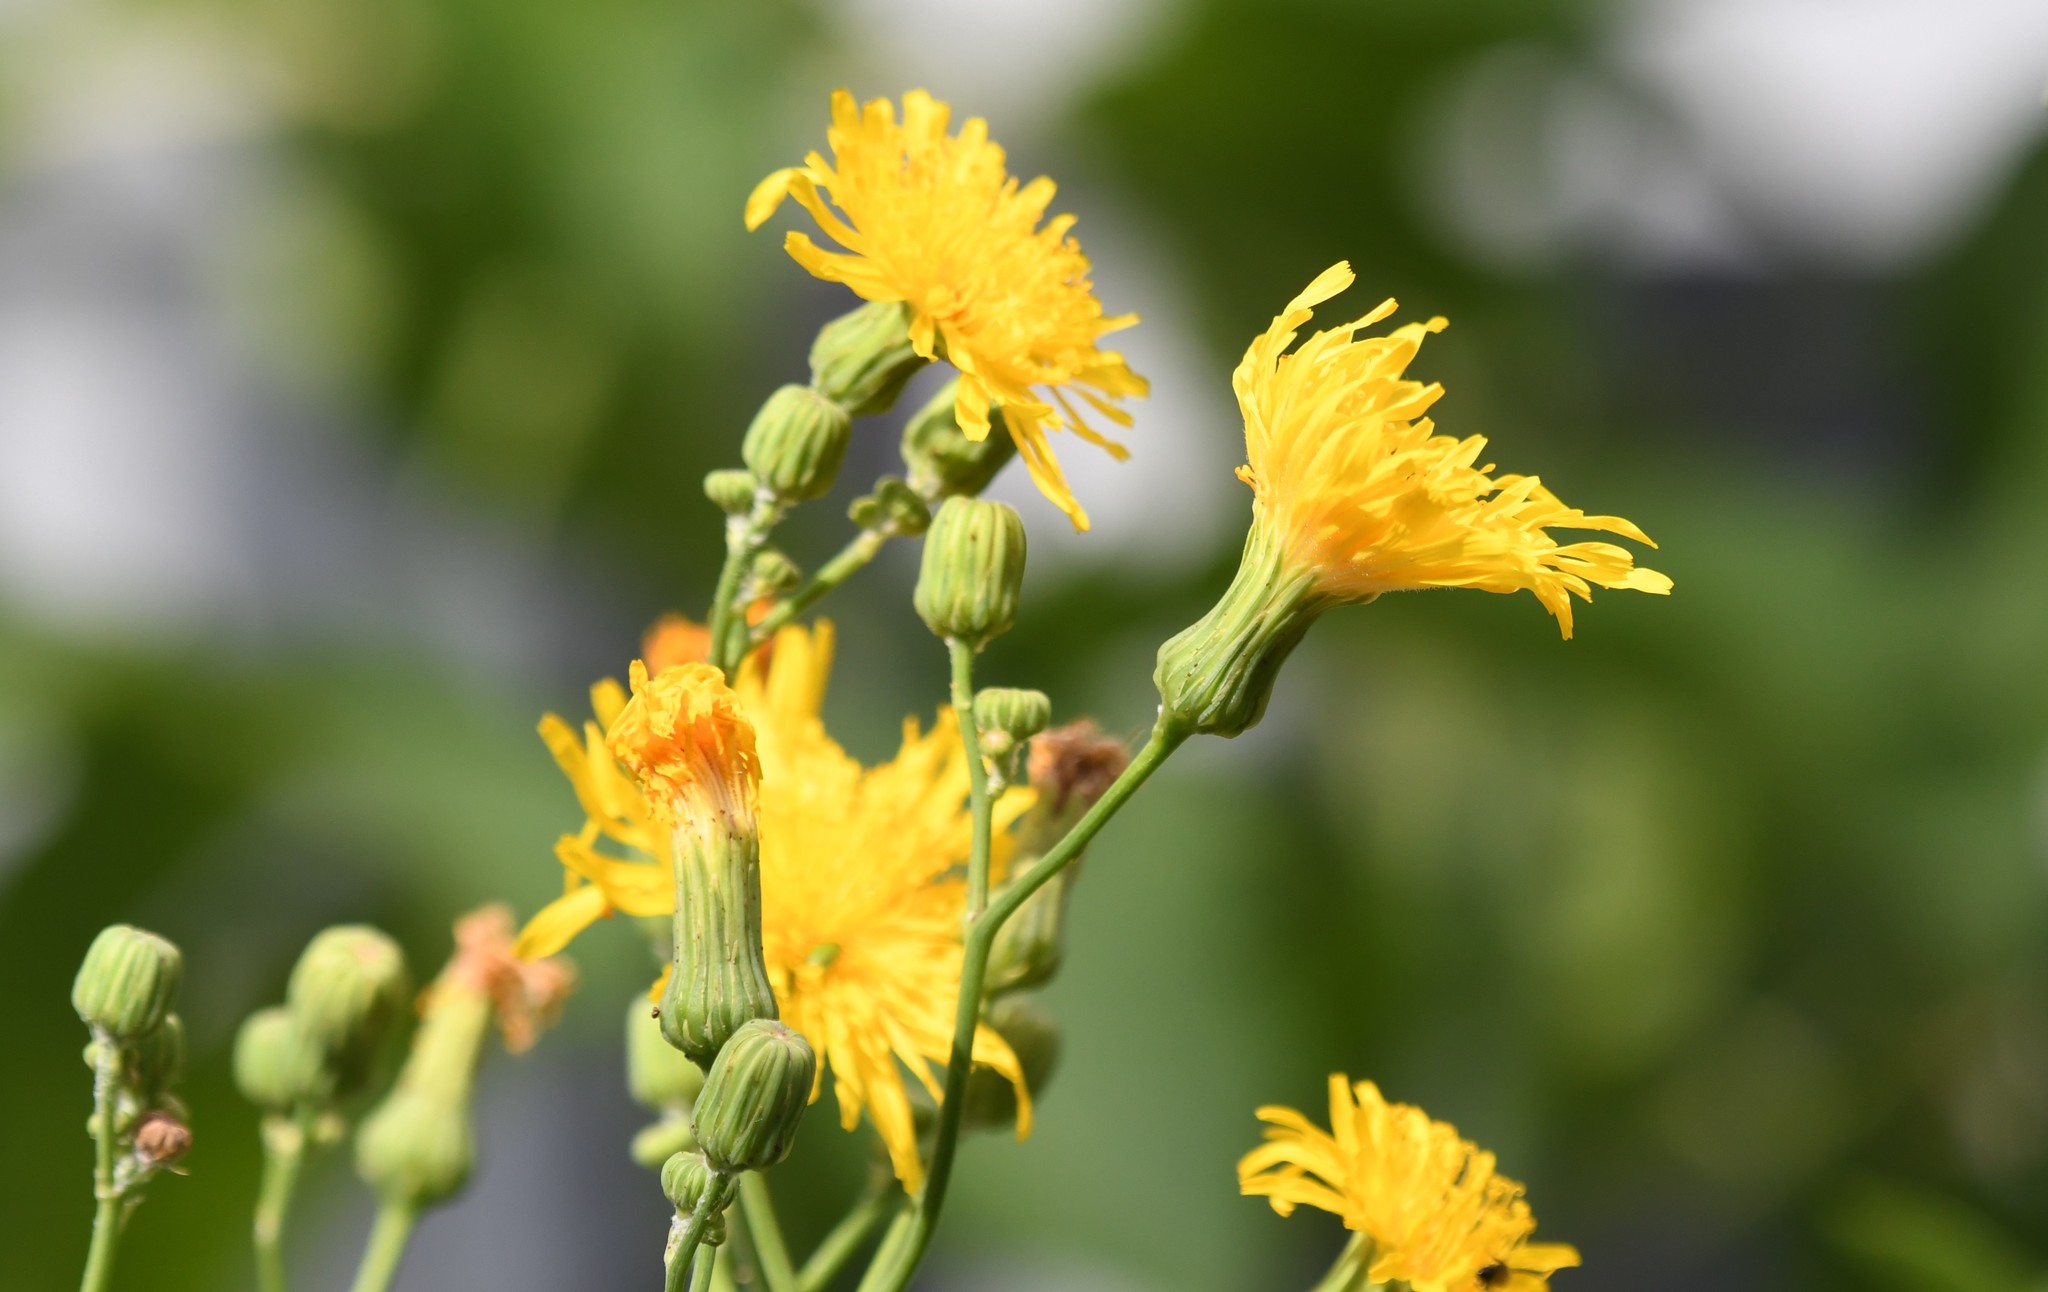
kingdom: Plantae
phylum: Tracheophyta
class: Magnoliopsida
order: Asterales
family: Asteraceae
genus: Sonchus
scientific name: Sonchus arvensis
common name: Perennial sow-thistle
